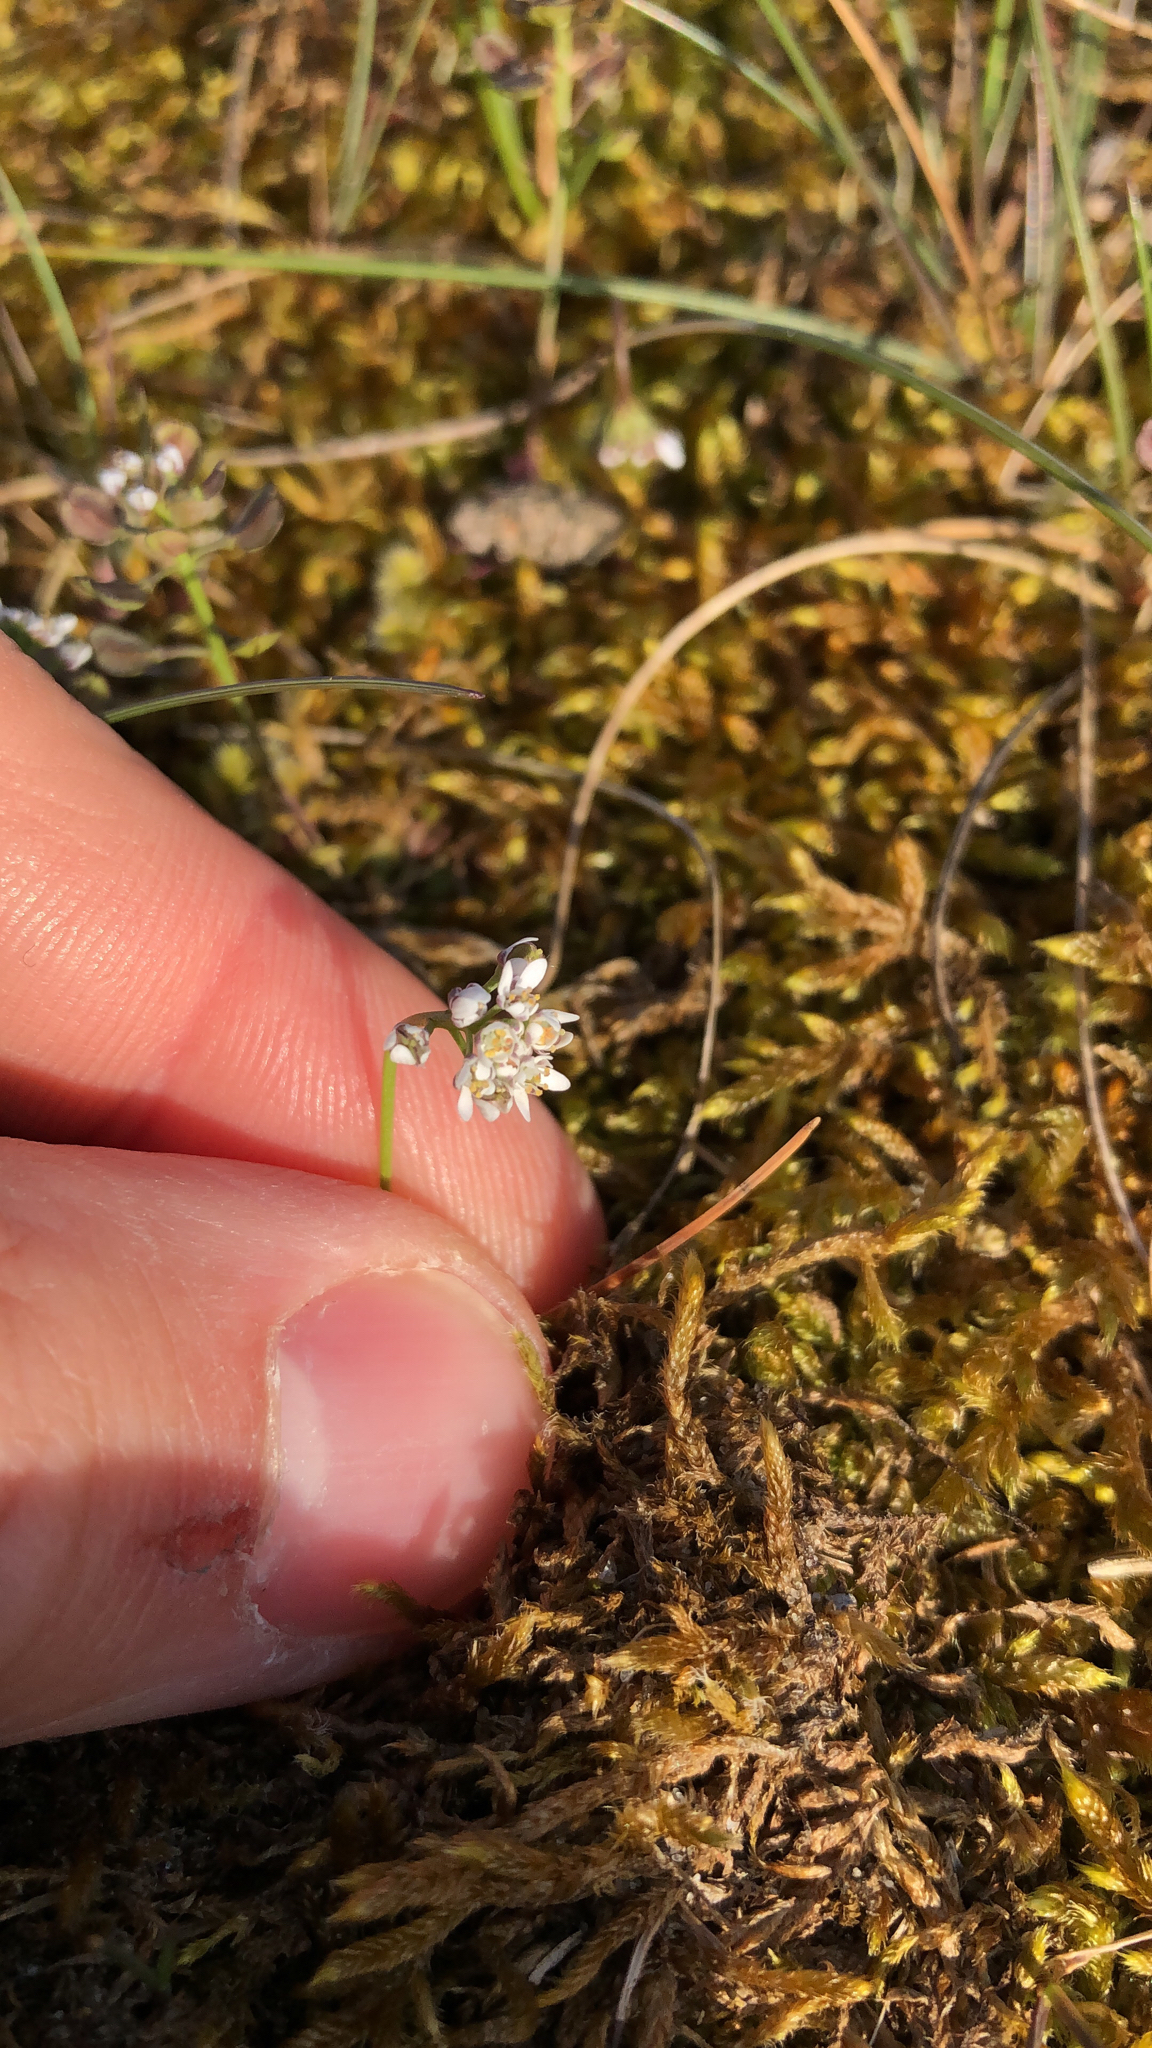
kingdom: Plantae
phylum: Tracheophyta
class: Magnoliopsida
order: Brassicales
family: Brassicaceae
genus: Teesdalia
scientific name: Teesdalia nudicaulis
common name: Shepherd's cress
